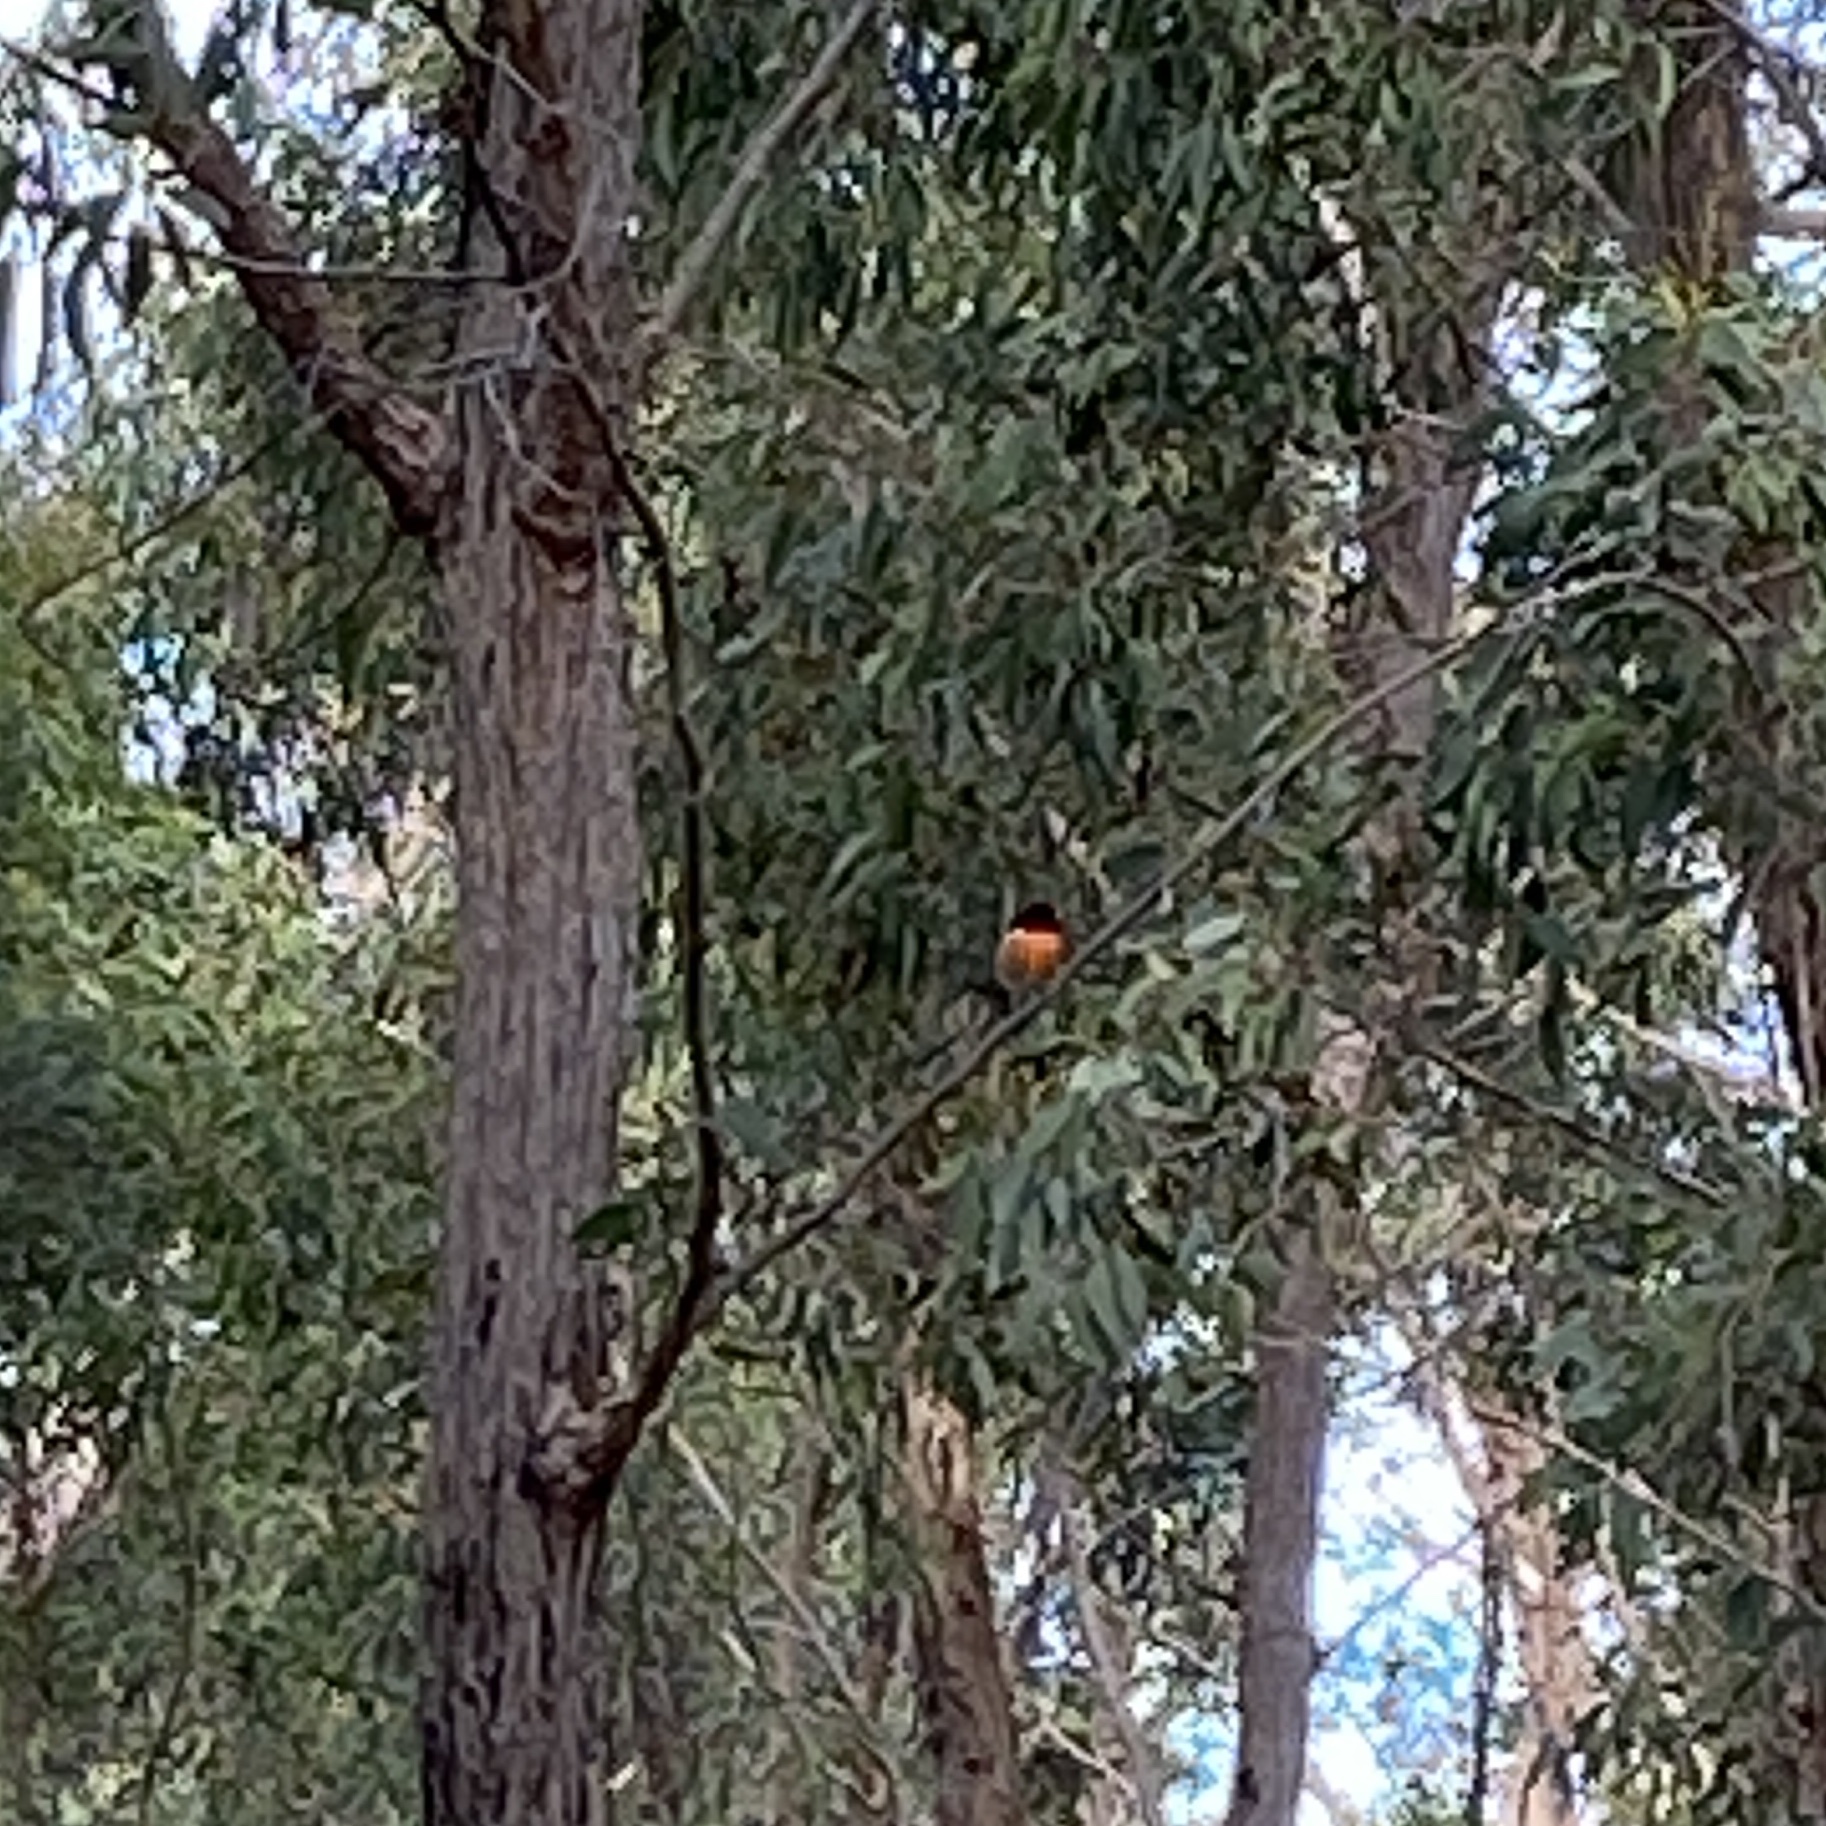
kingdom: Animalia
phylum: Chordata
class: Aves
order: Passeriformes
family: Petroicidae
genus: Petroica
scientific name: Petroica boodang
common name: Scarlet robin
